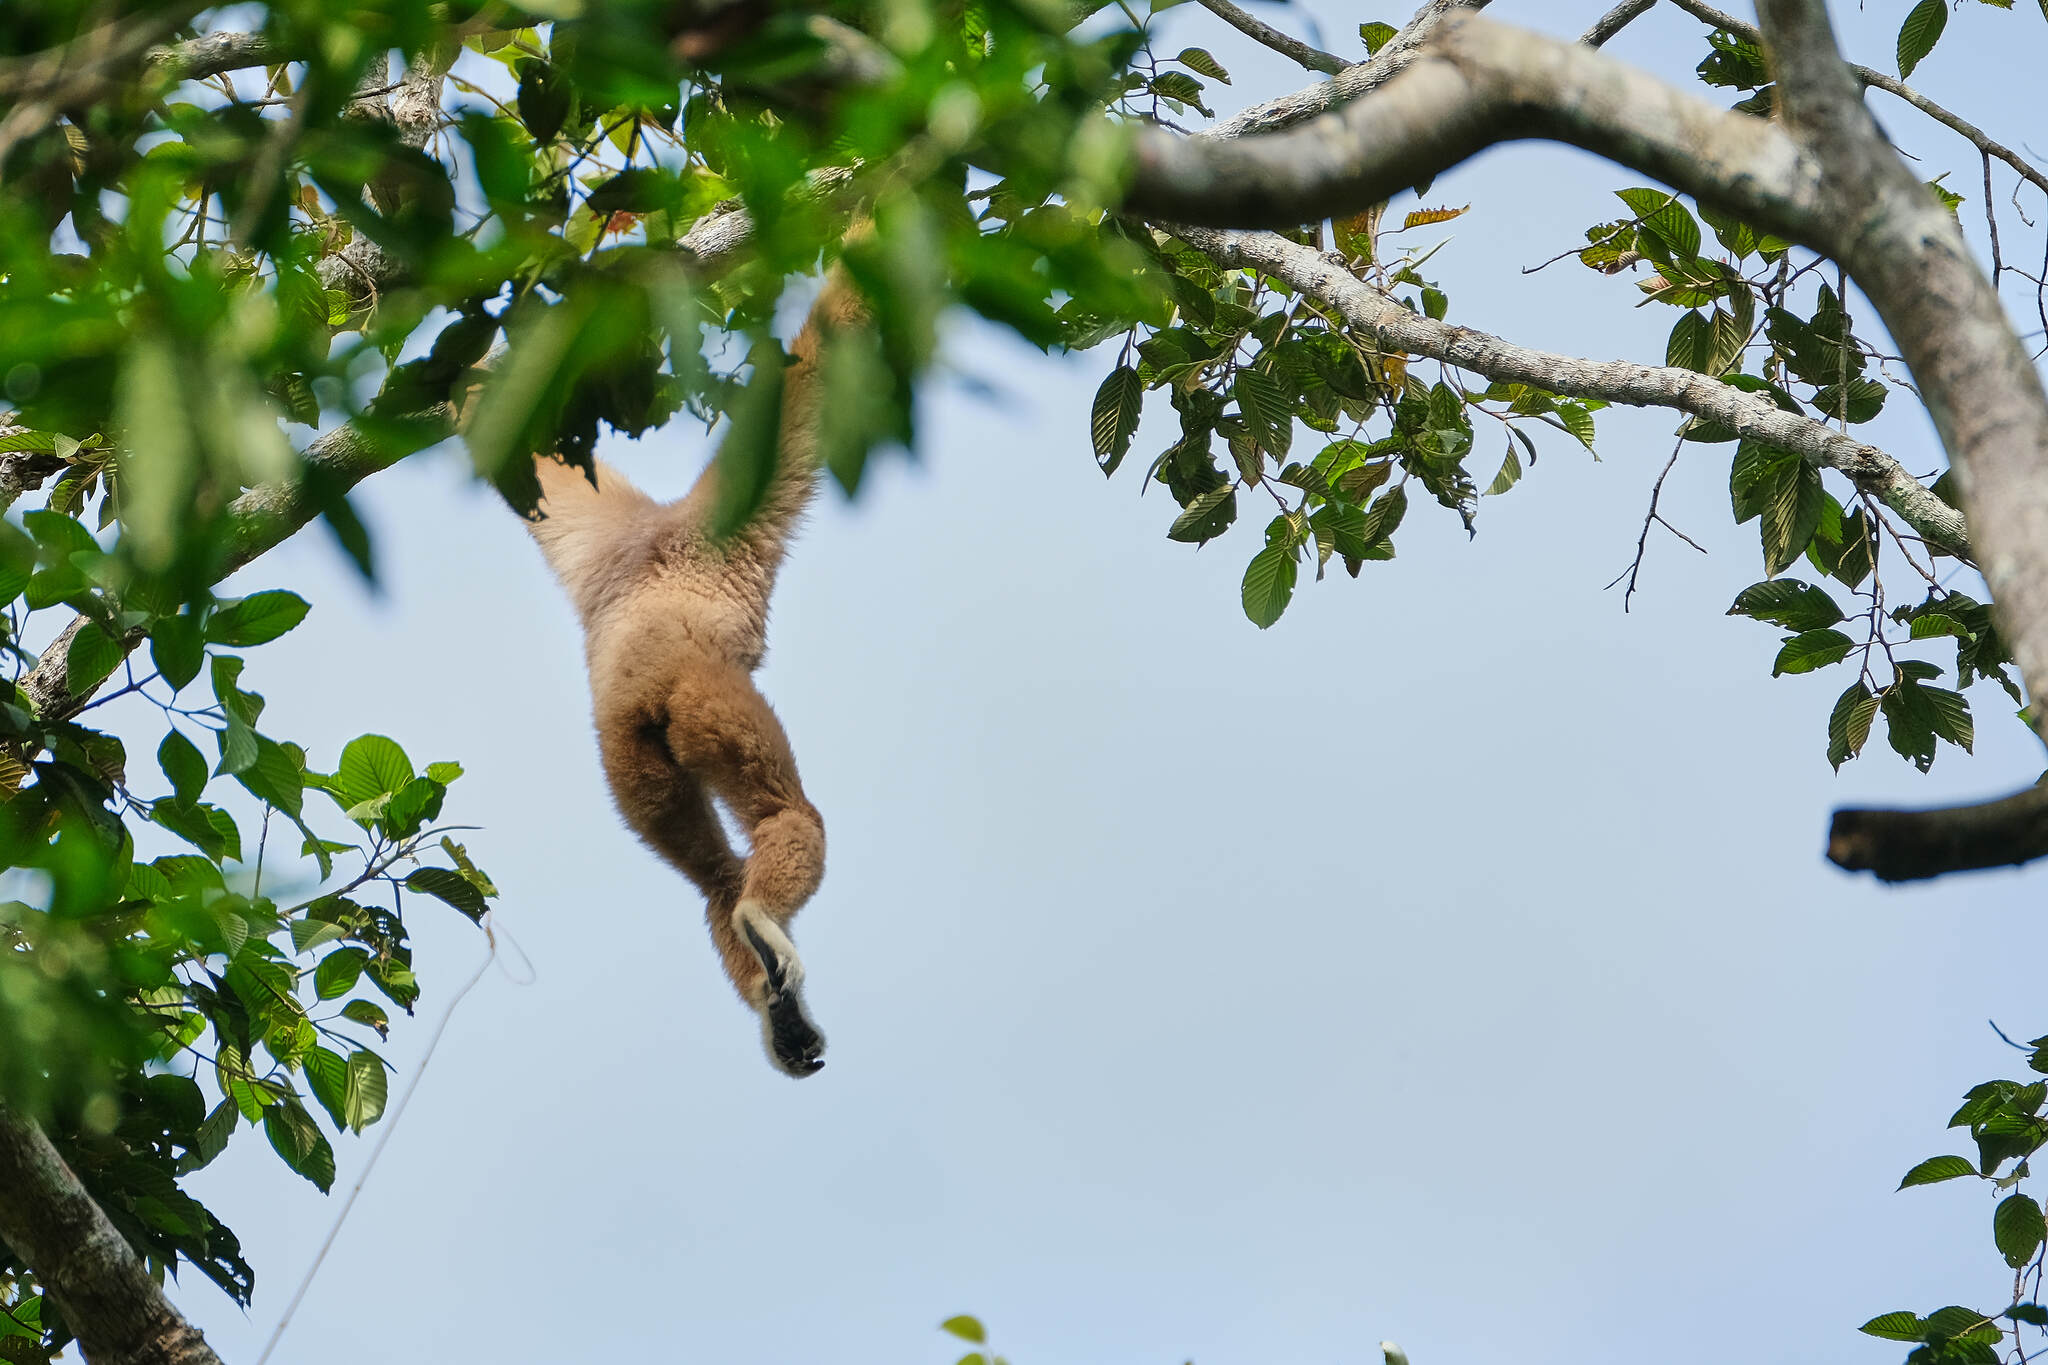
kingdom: Animalia
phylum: Chordata
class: Mammalia
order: Primates
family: Hylobatidae
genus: Hylobates
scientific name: Hylobates lar
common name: Lar gibbon
